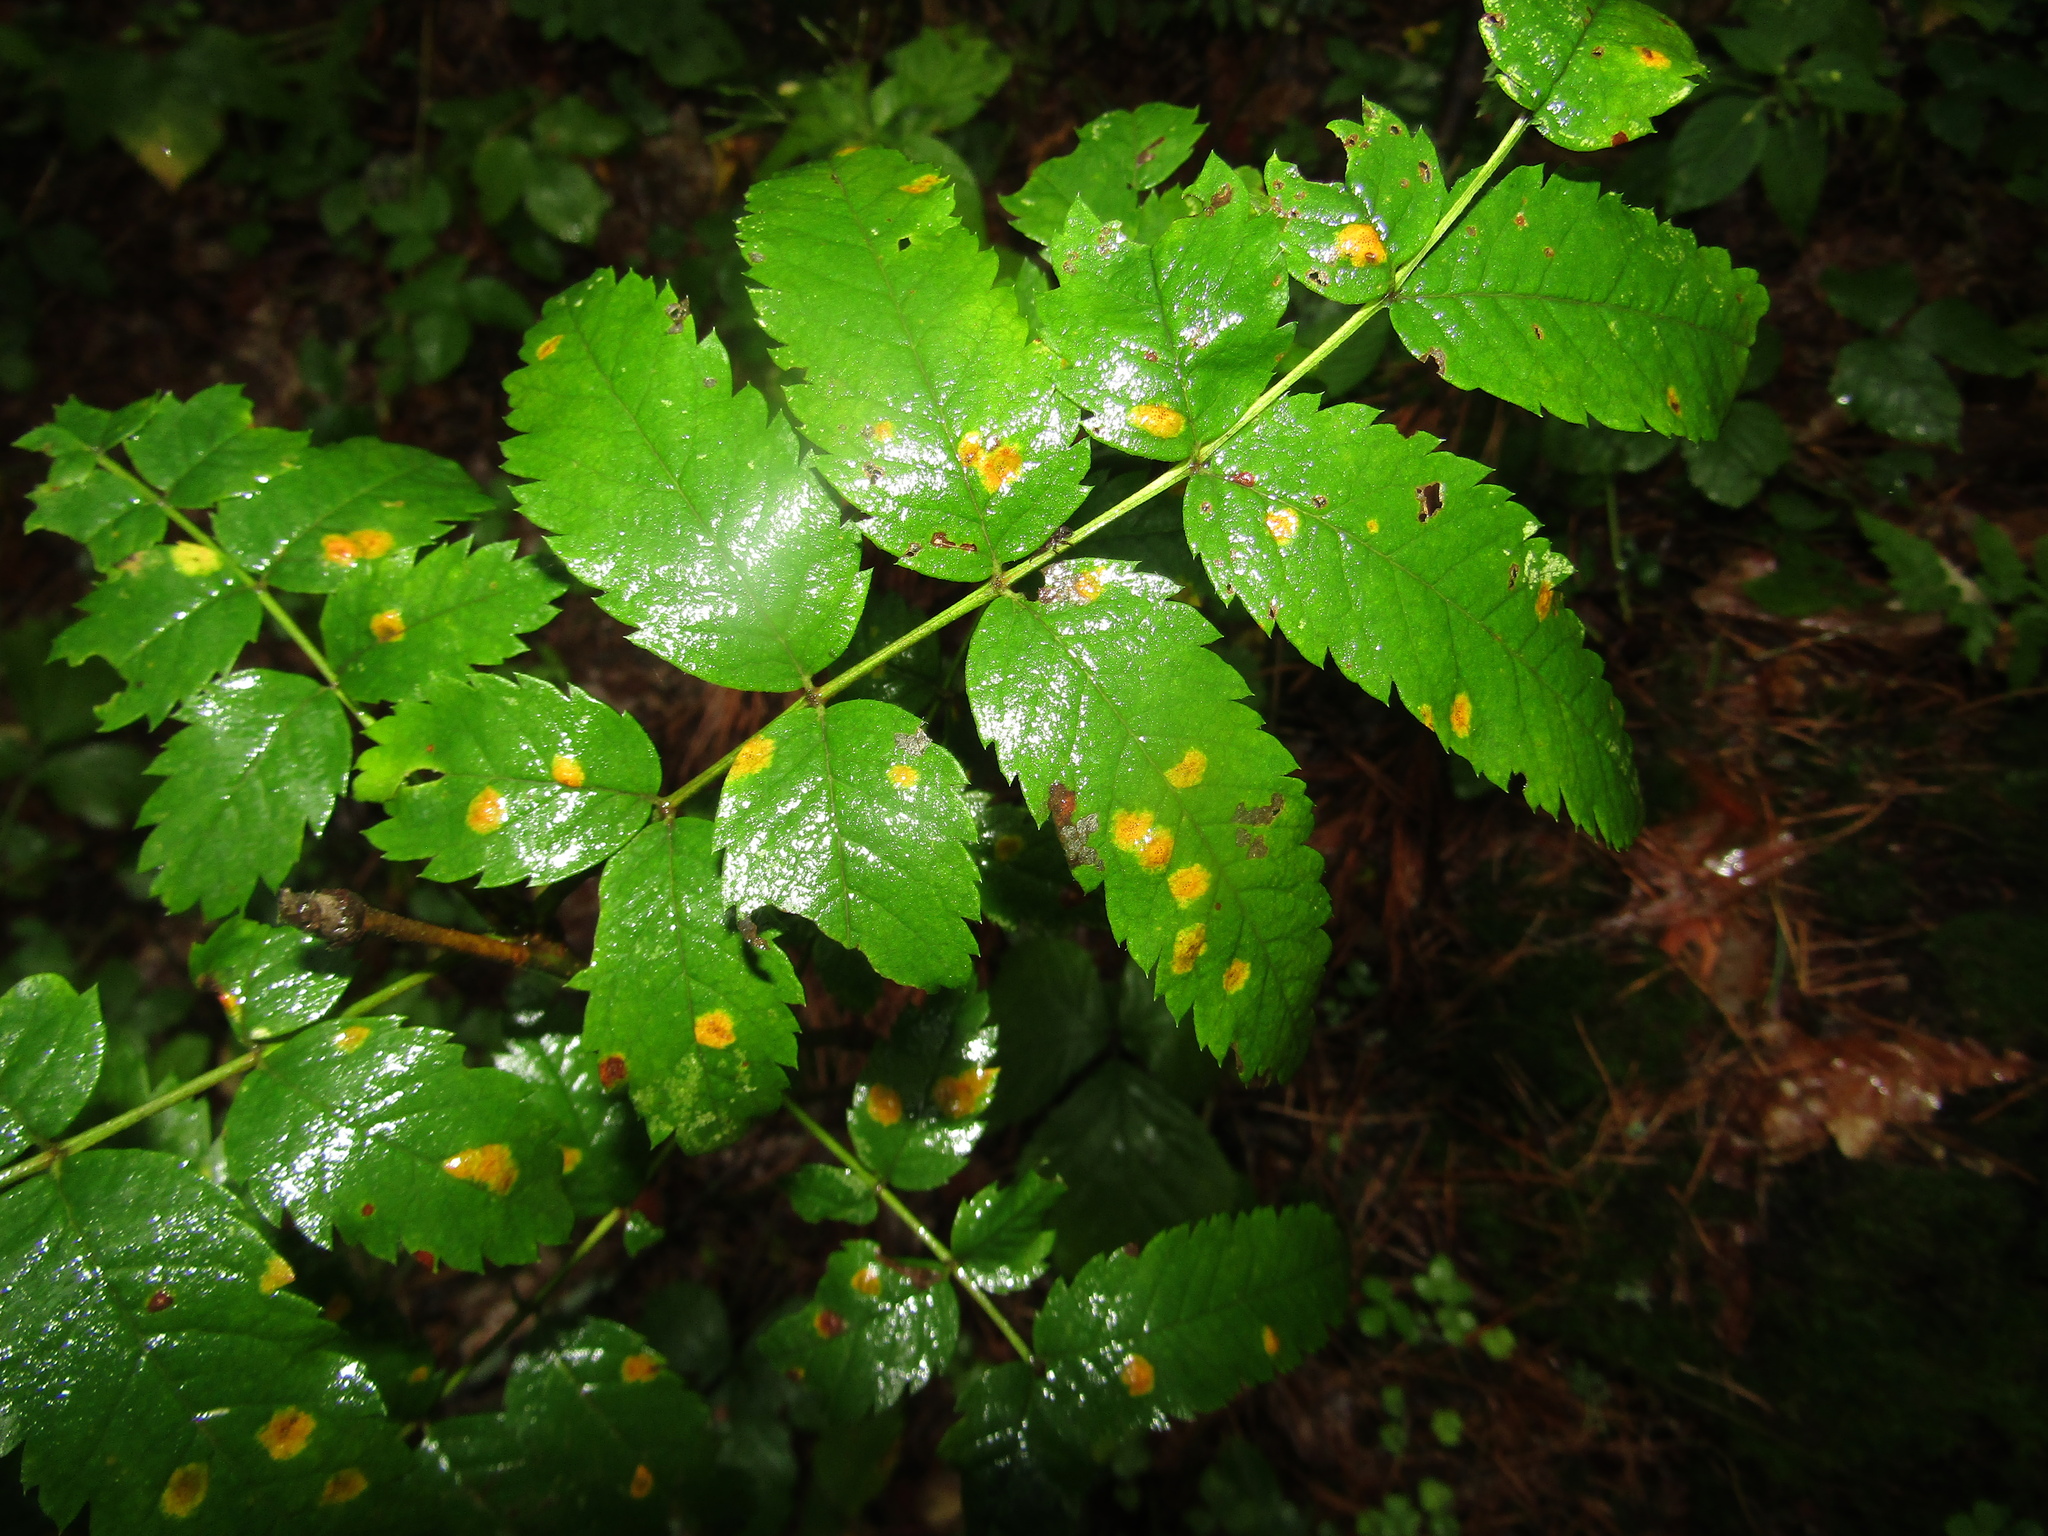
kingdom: Plantae
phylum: Tracheophyta
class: Magnoliopsida
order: Rosales
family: Rosaceae
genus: Sorbus
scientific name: Sorbus aucuparia
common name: Rowan
